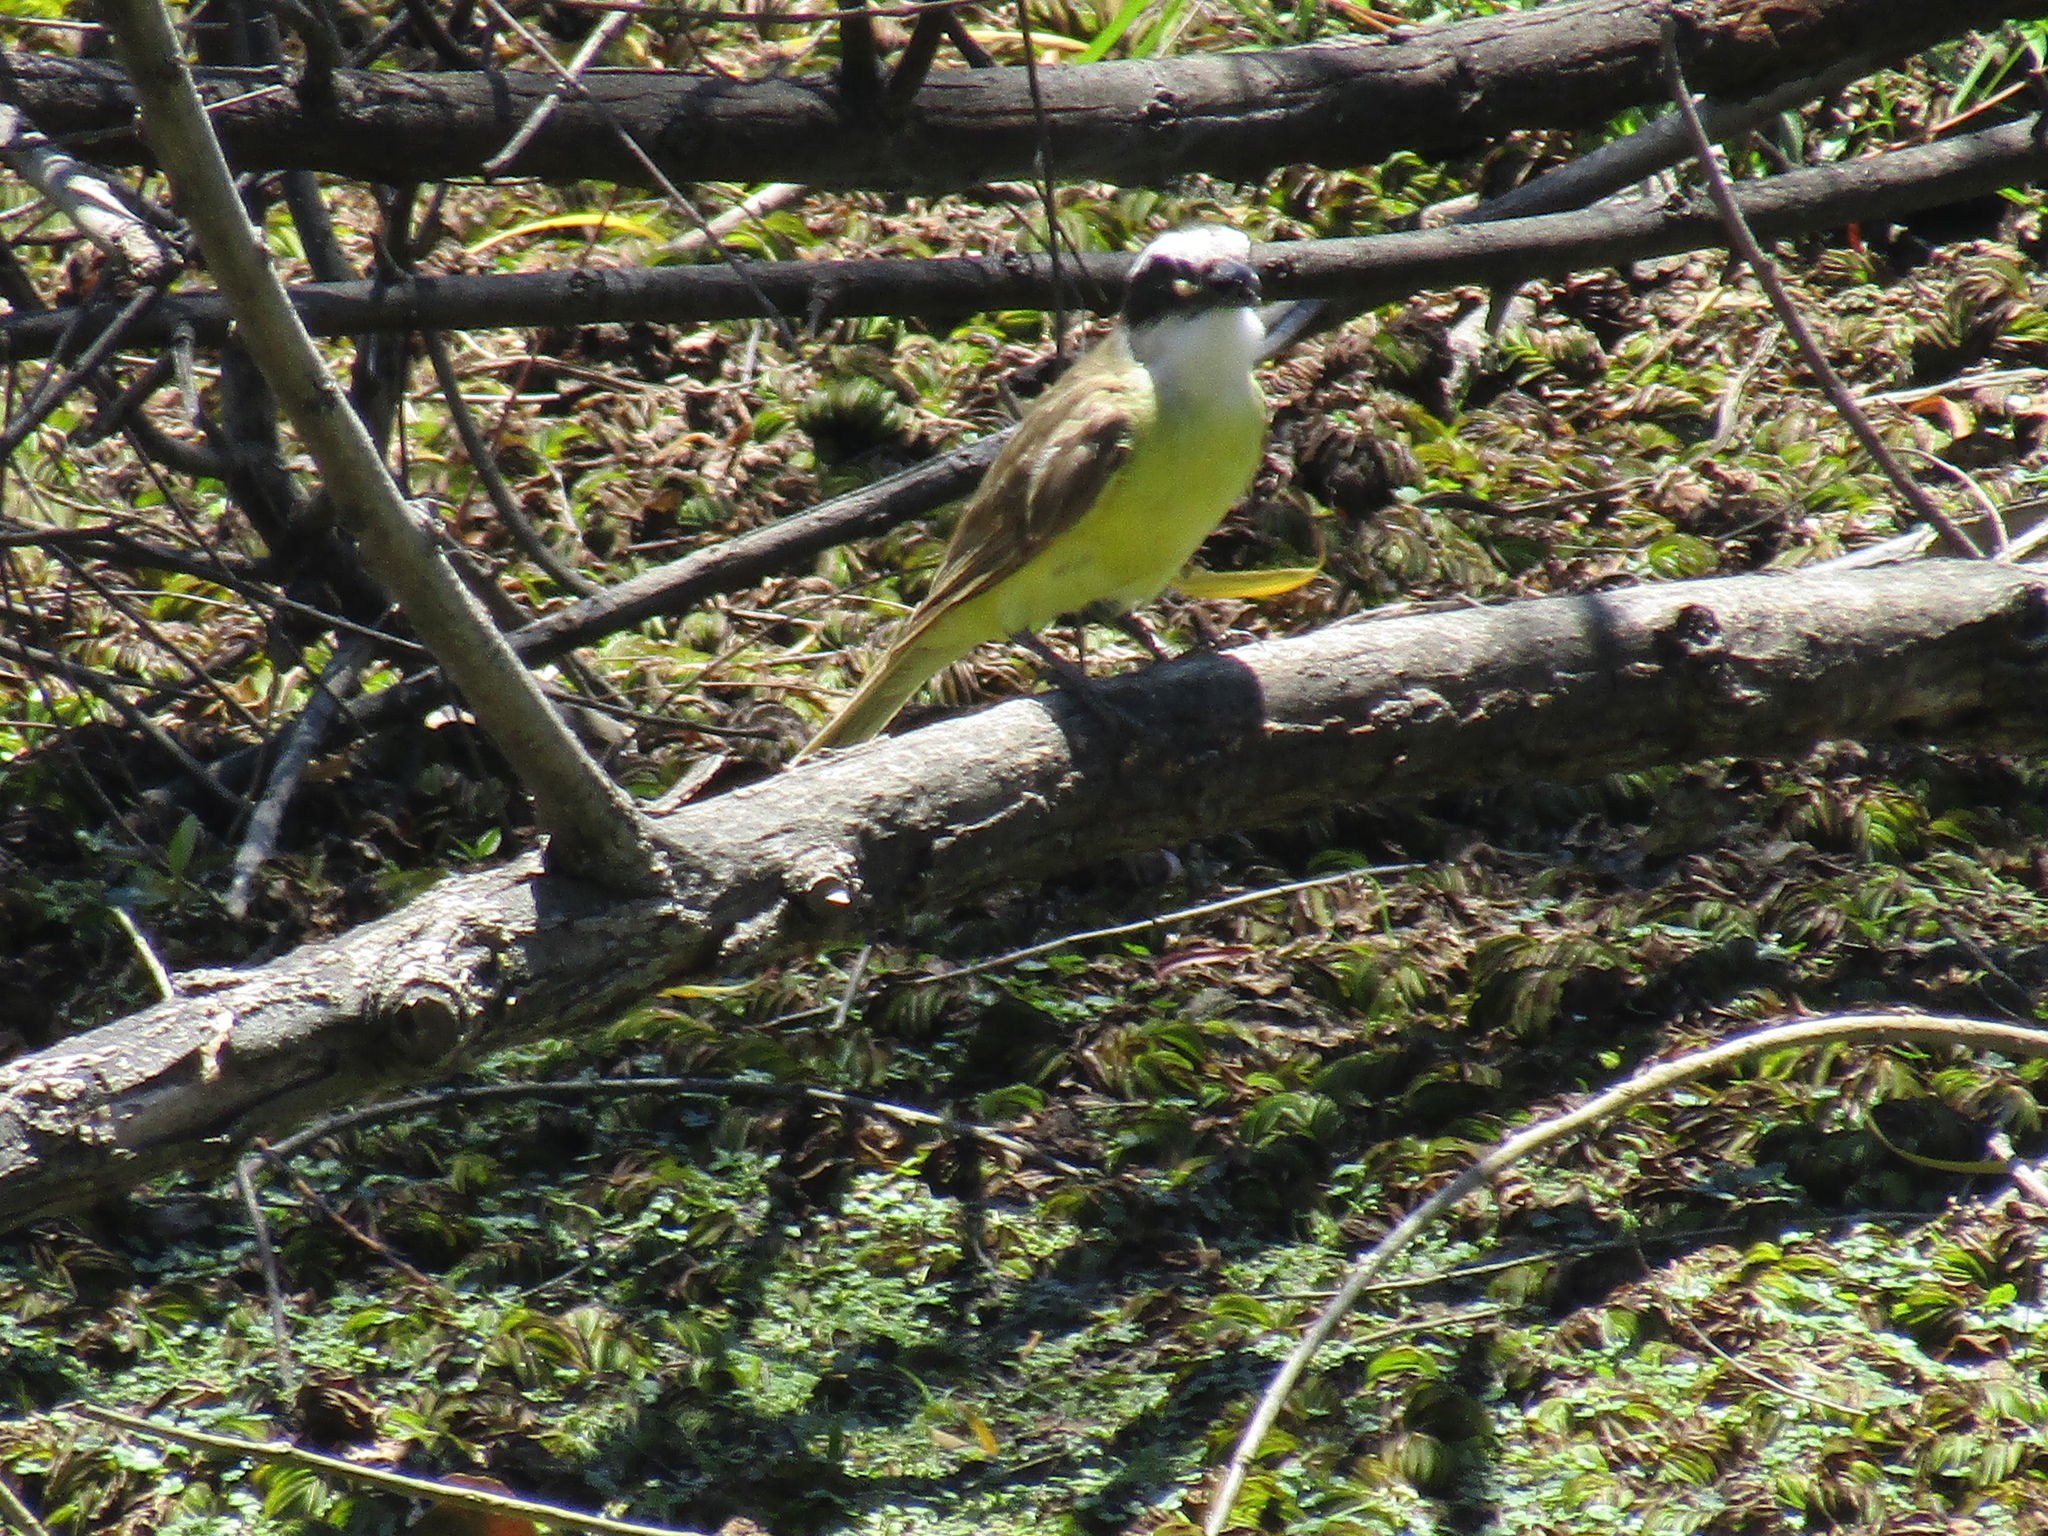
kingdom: Animalia
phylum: Chordata
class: Aves
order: Passeriformes
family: Tyrannidae
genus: Pitangus
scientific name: Pitangus sulphuratus
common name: Great kiskadee
